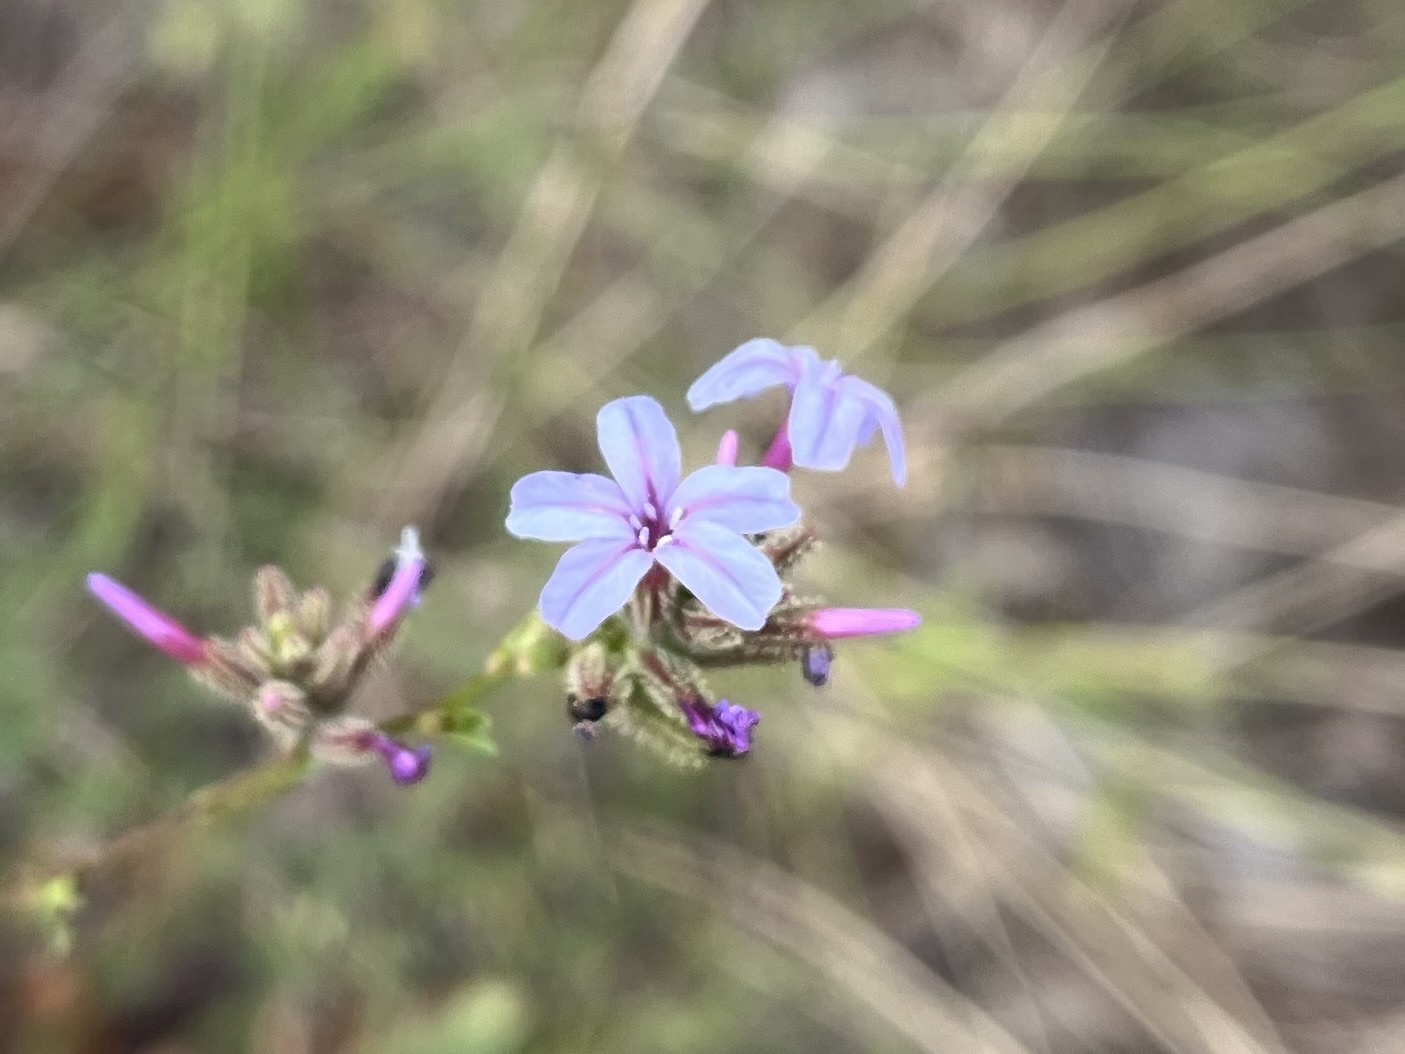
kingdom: Plantae
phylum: Tracheophyta
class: Magnoliopsida
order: Caryophyllales
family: Plumbaginaceae
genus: Plumbago
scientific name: Plumbago europaea
